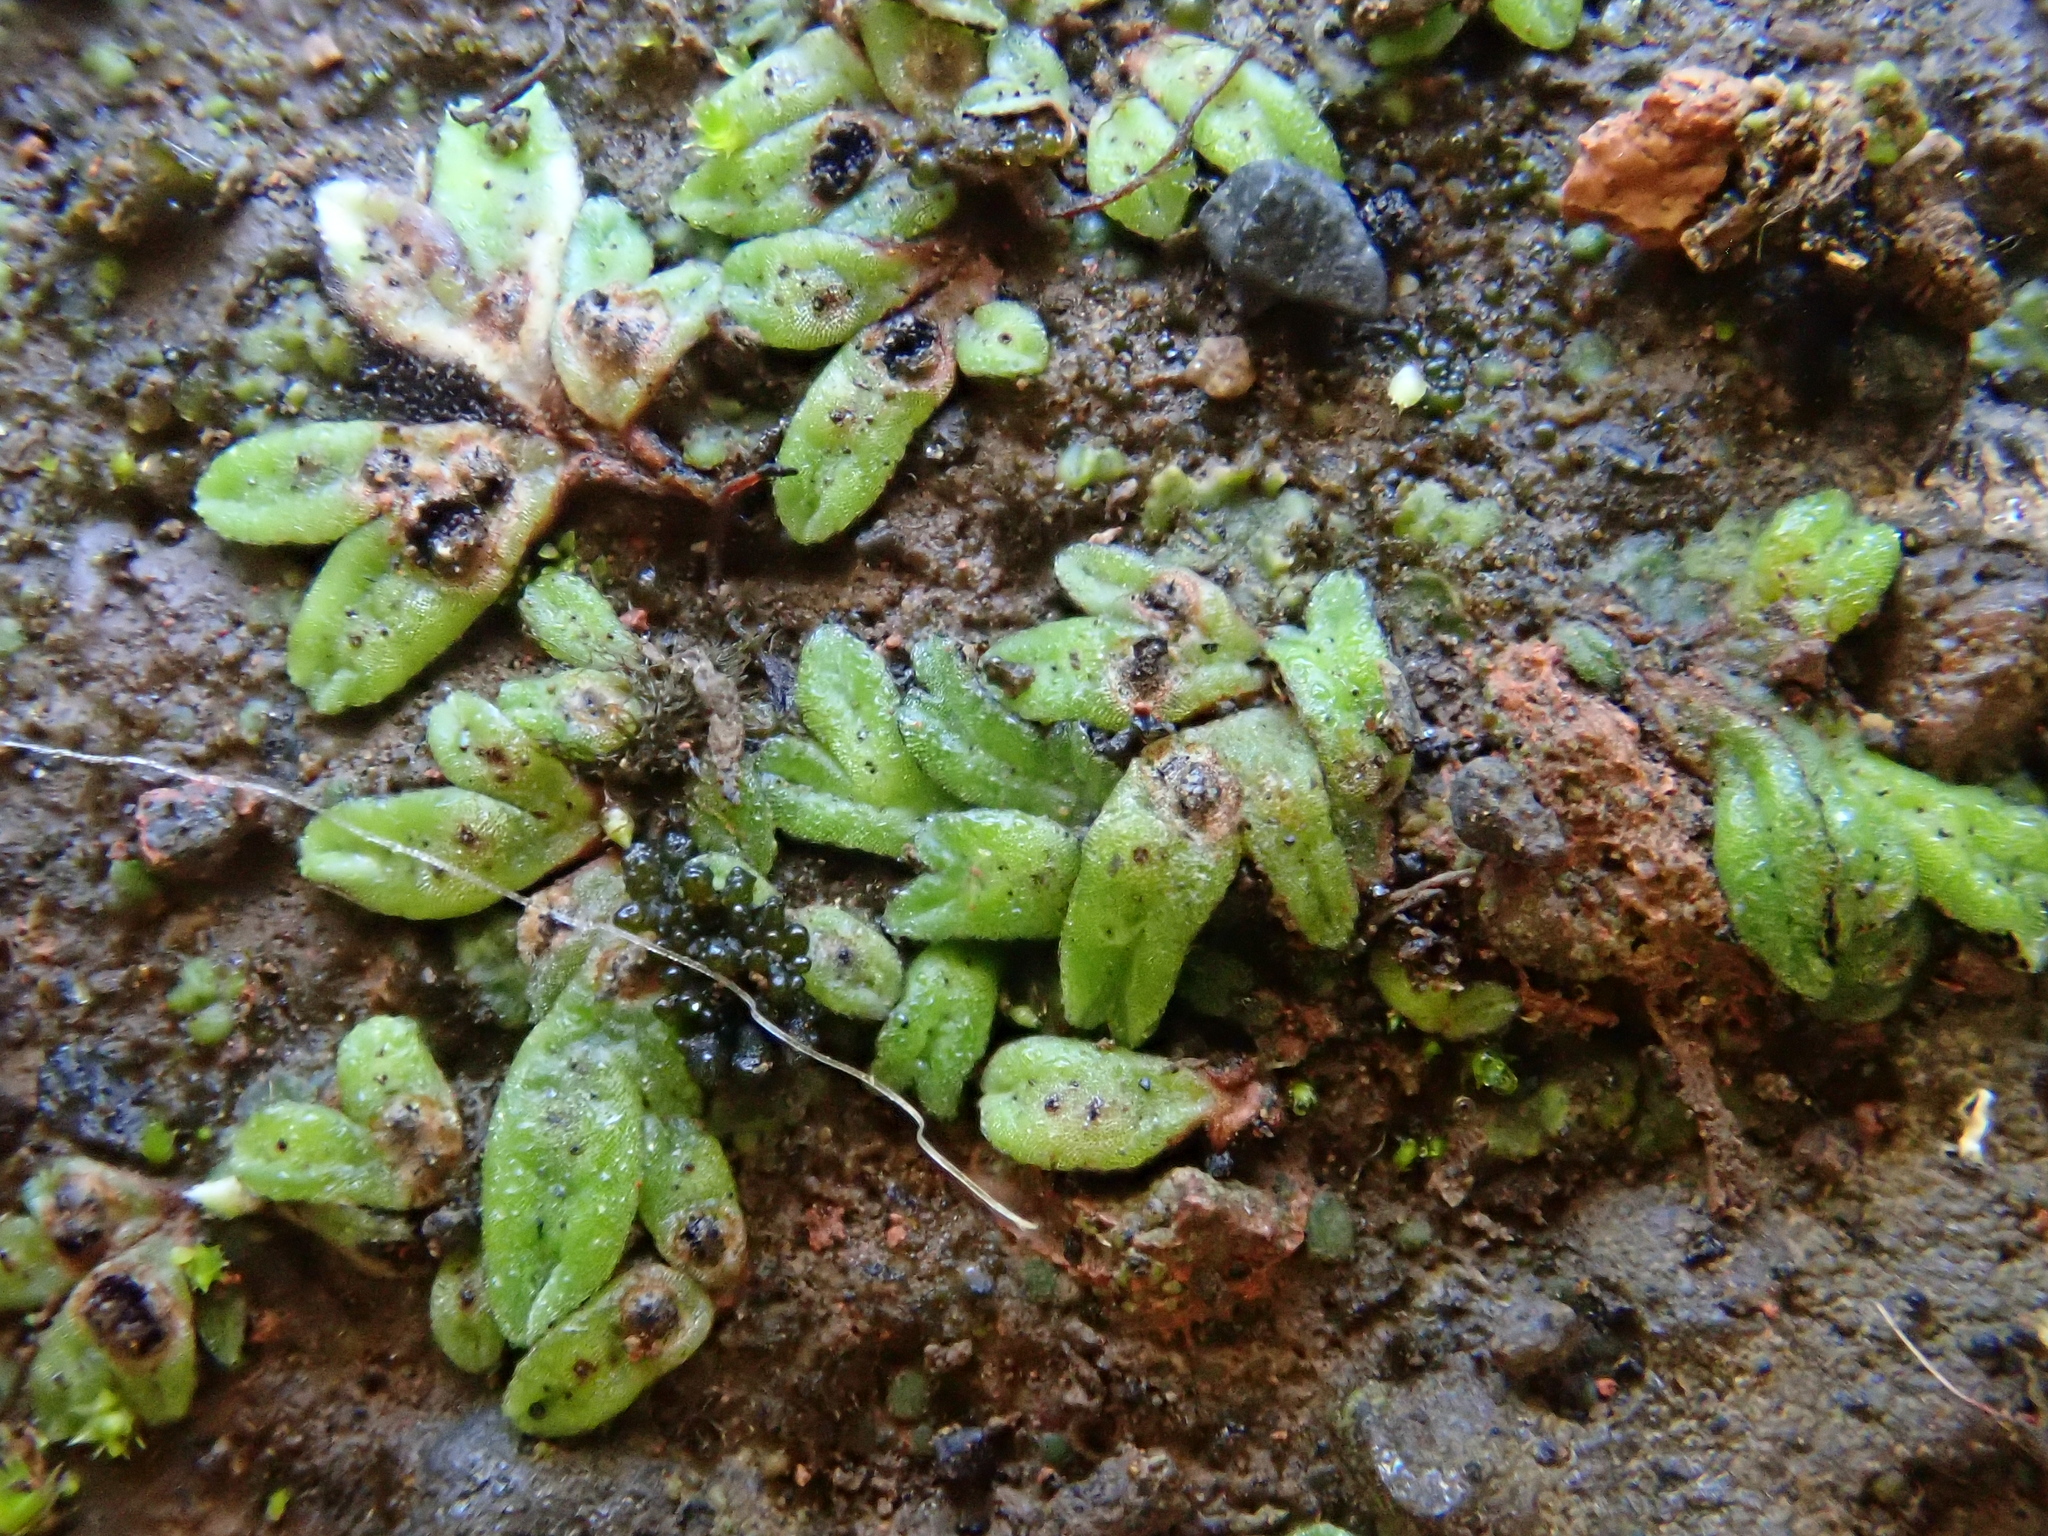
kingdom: Plantae
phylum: Marchantiophyta
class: Marchantiopsida
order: Marchantiales
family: Ricciaceae
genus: Riccia
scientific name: Riccia nigrella
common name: Black crystalwort
